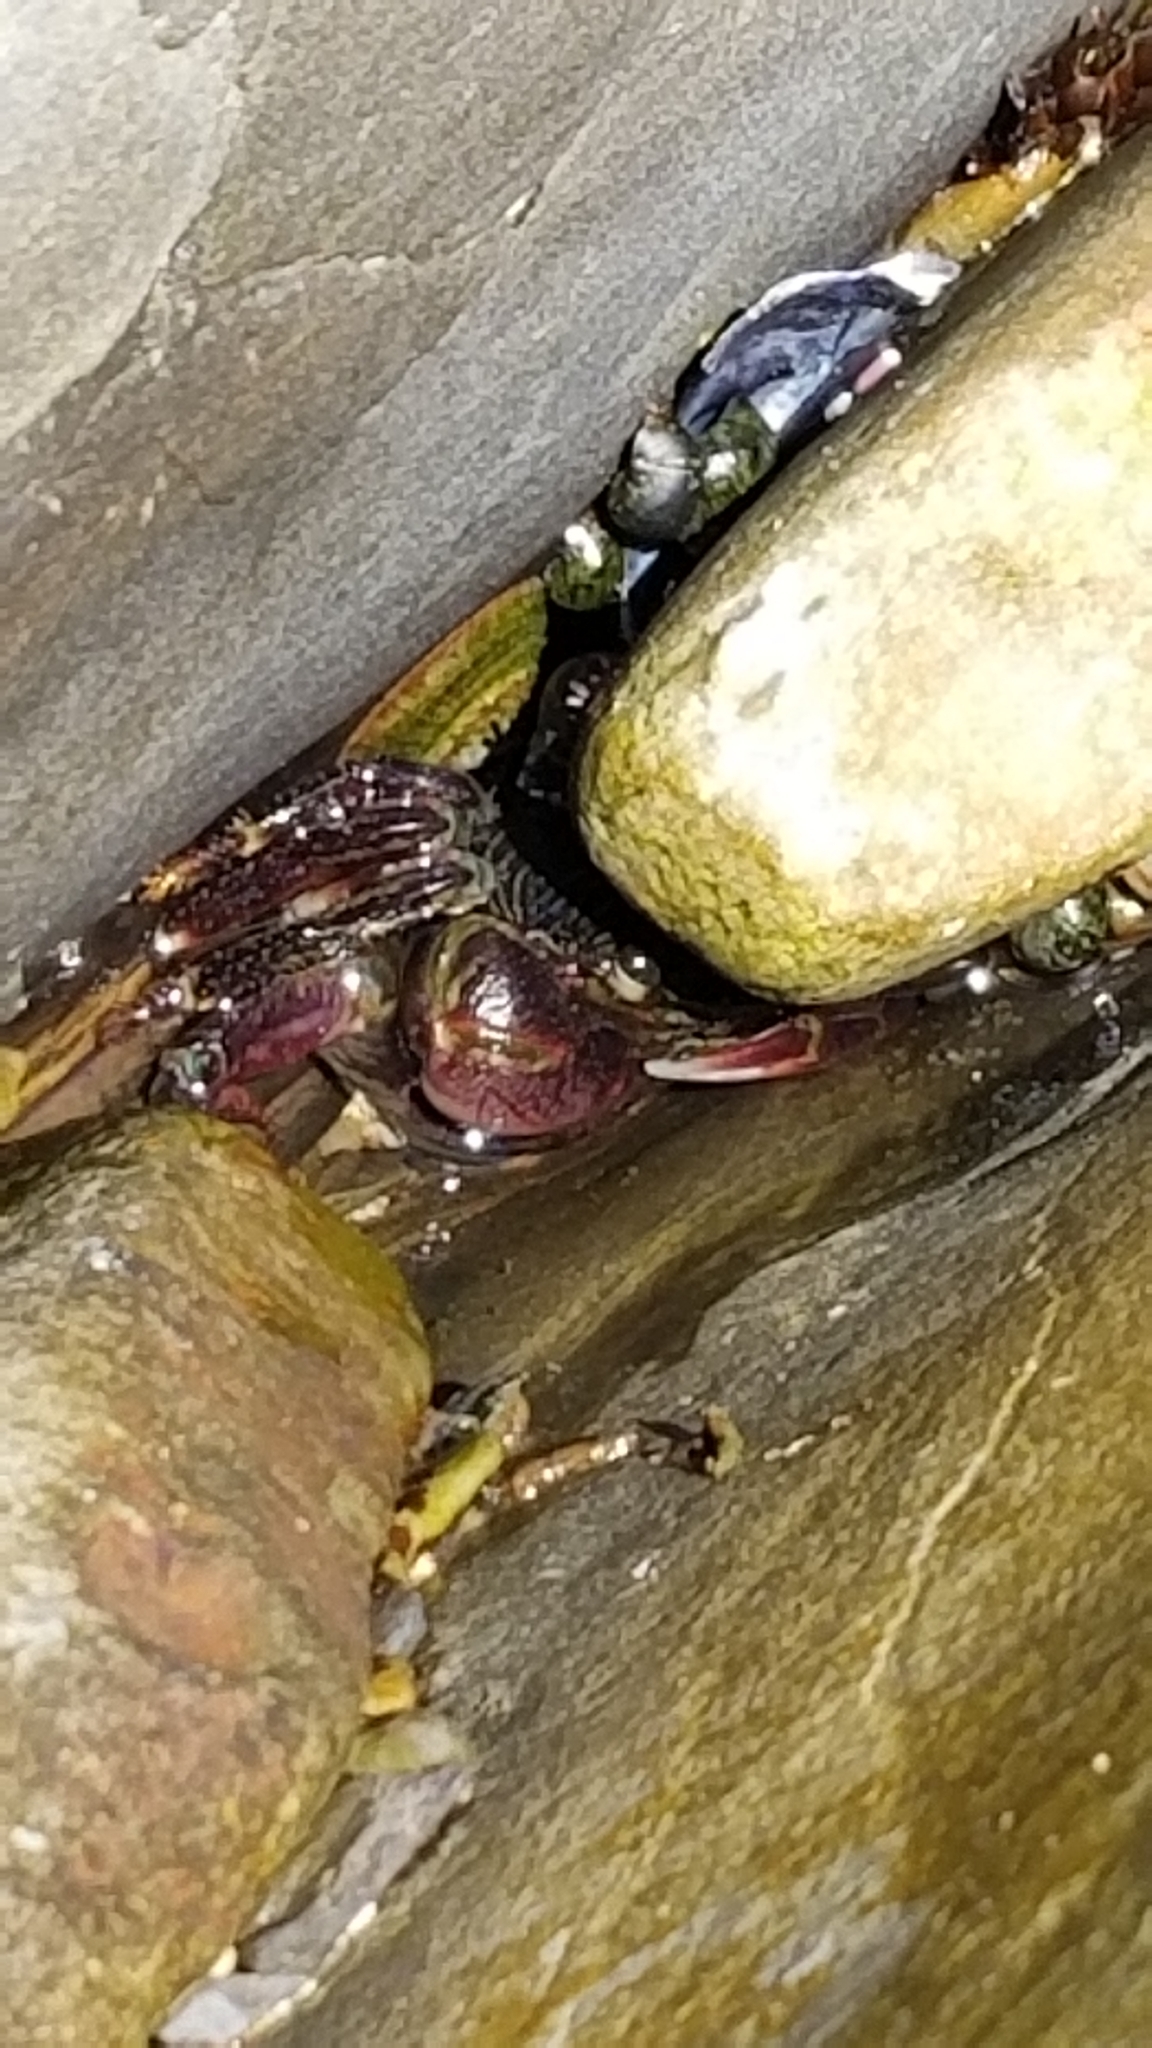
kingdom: Animalia
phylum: Arthropoda
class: Malacostraca
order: Decapoda
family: Grapsidae
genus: Pachygrapsus
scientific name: Pachygrapsus crassipes
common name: Striped shore crab
